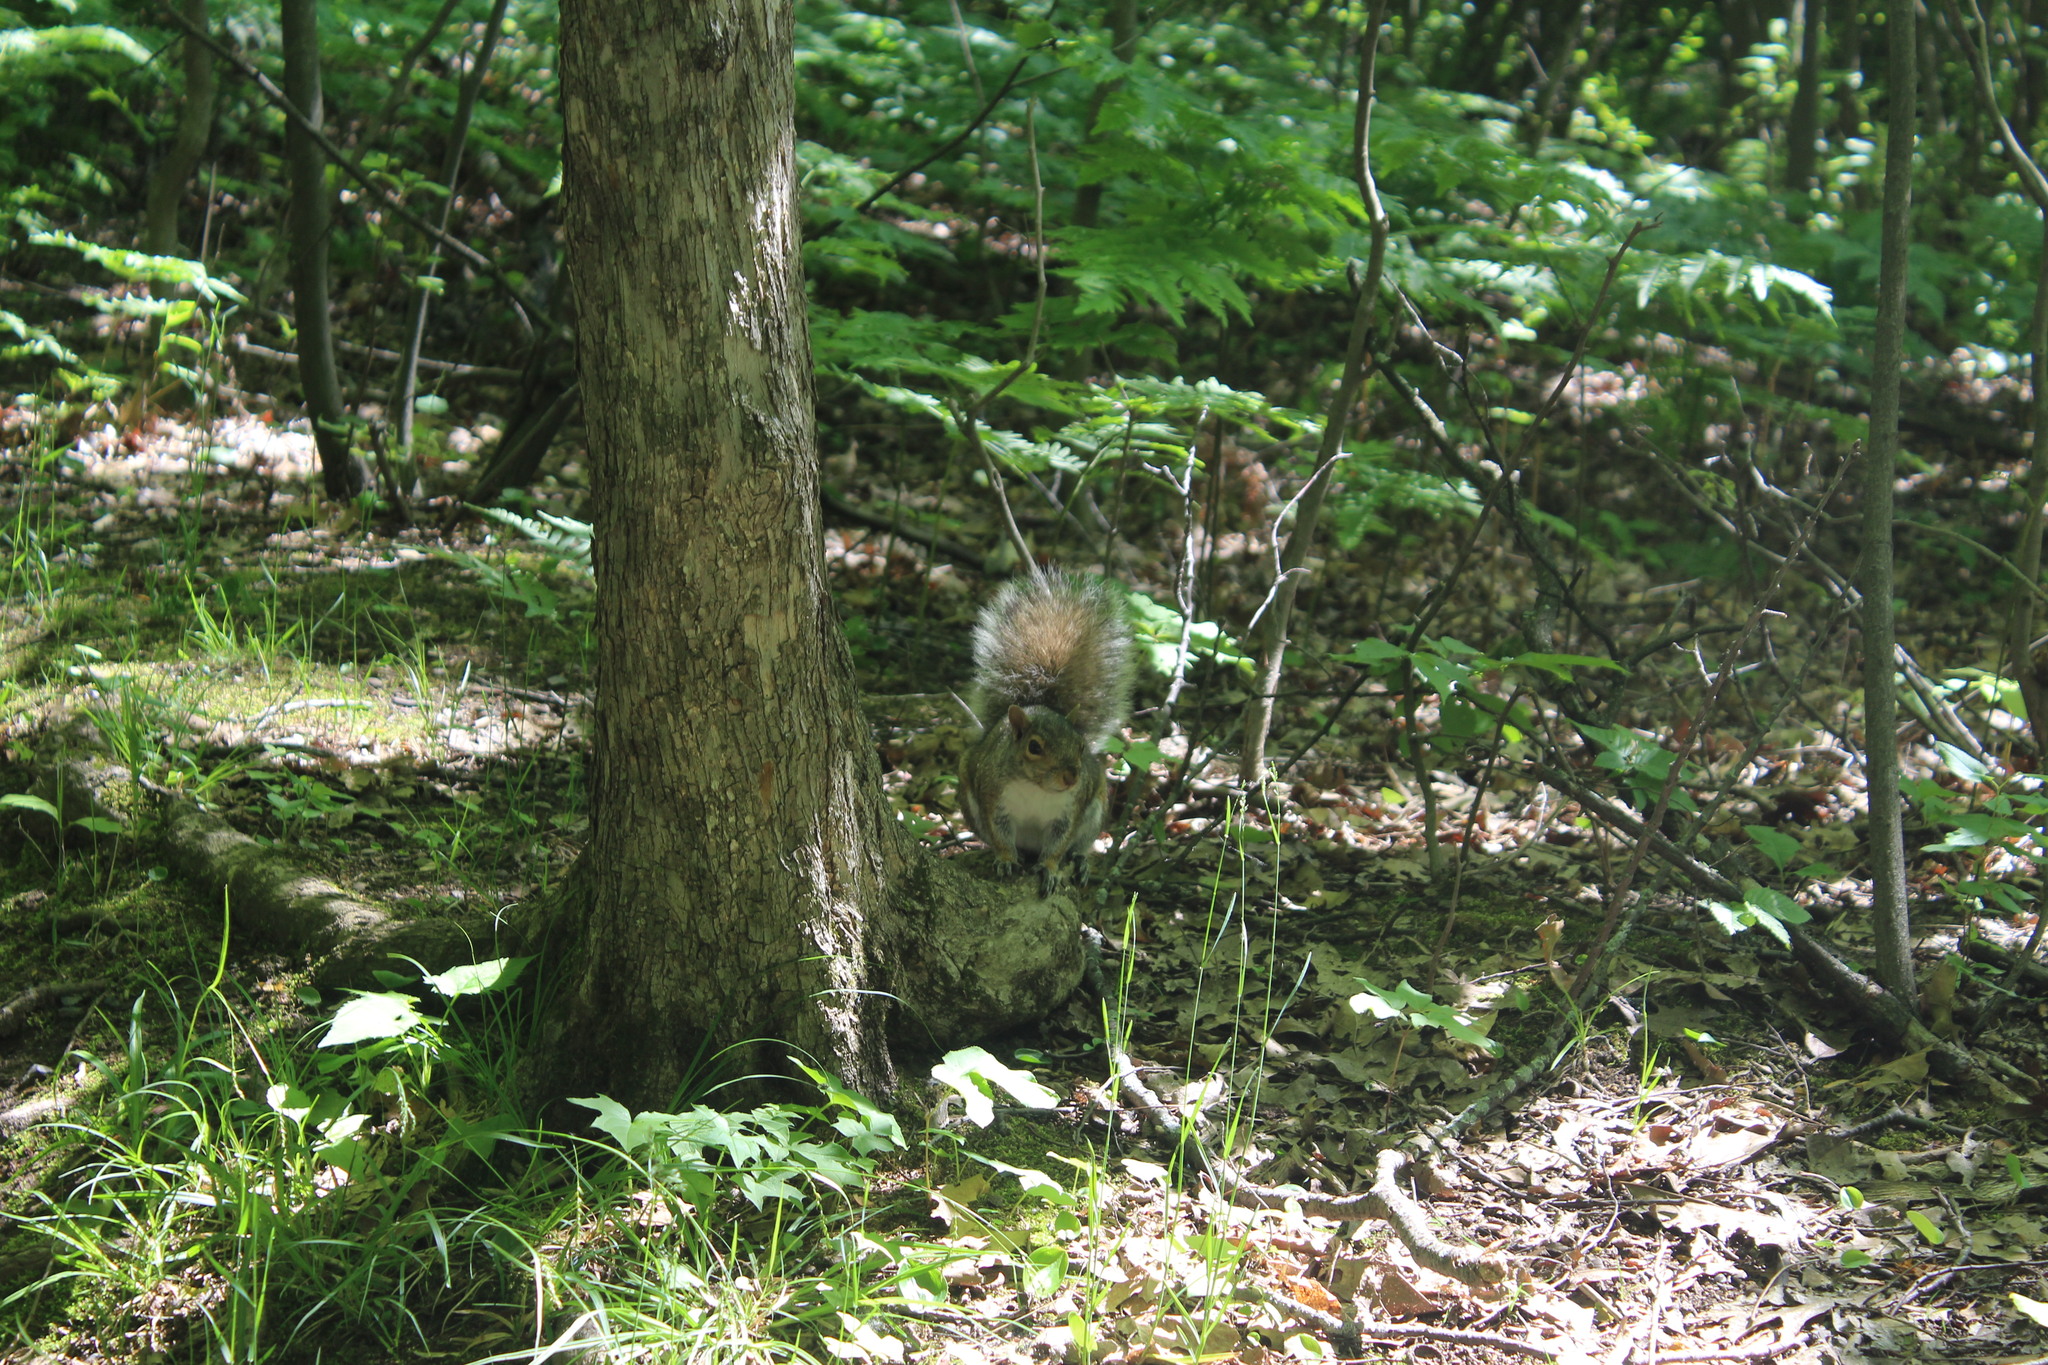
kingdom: Animalia
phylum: Chordata
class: Mammalia
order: Rodentia
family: Sciuridae
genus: Sciurus
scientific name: Sciurus carolinensis
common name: Eastern gray squirrel
